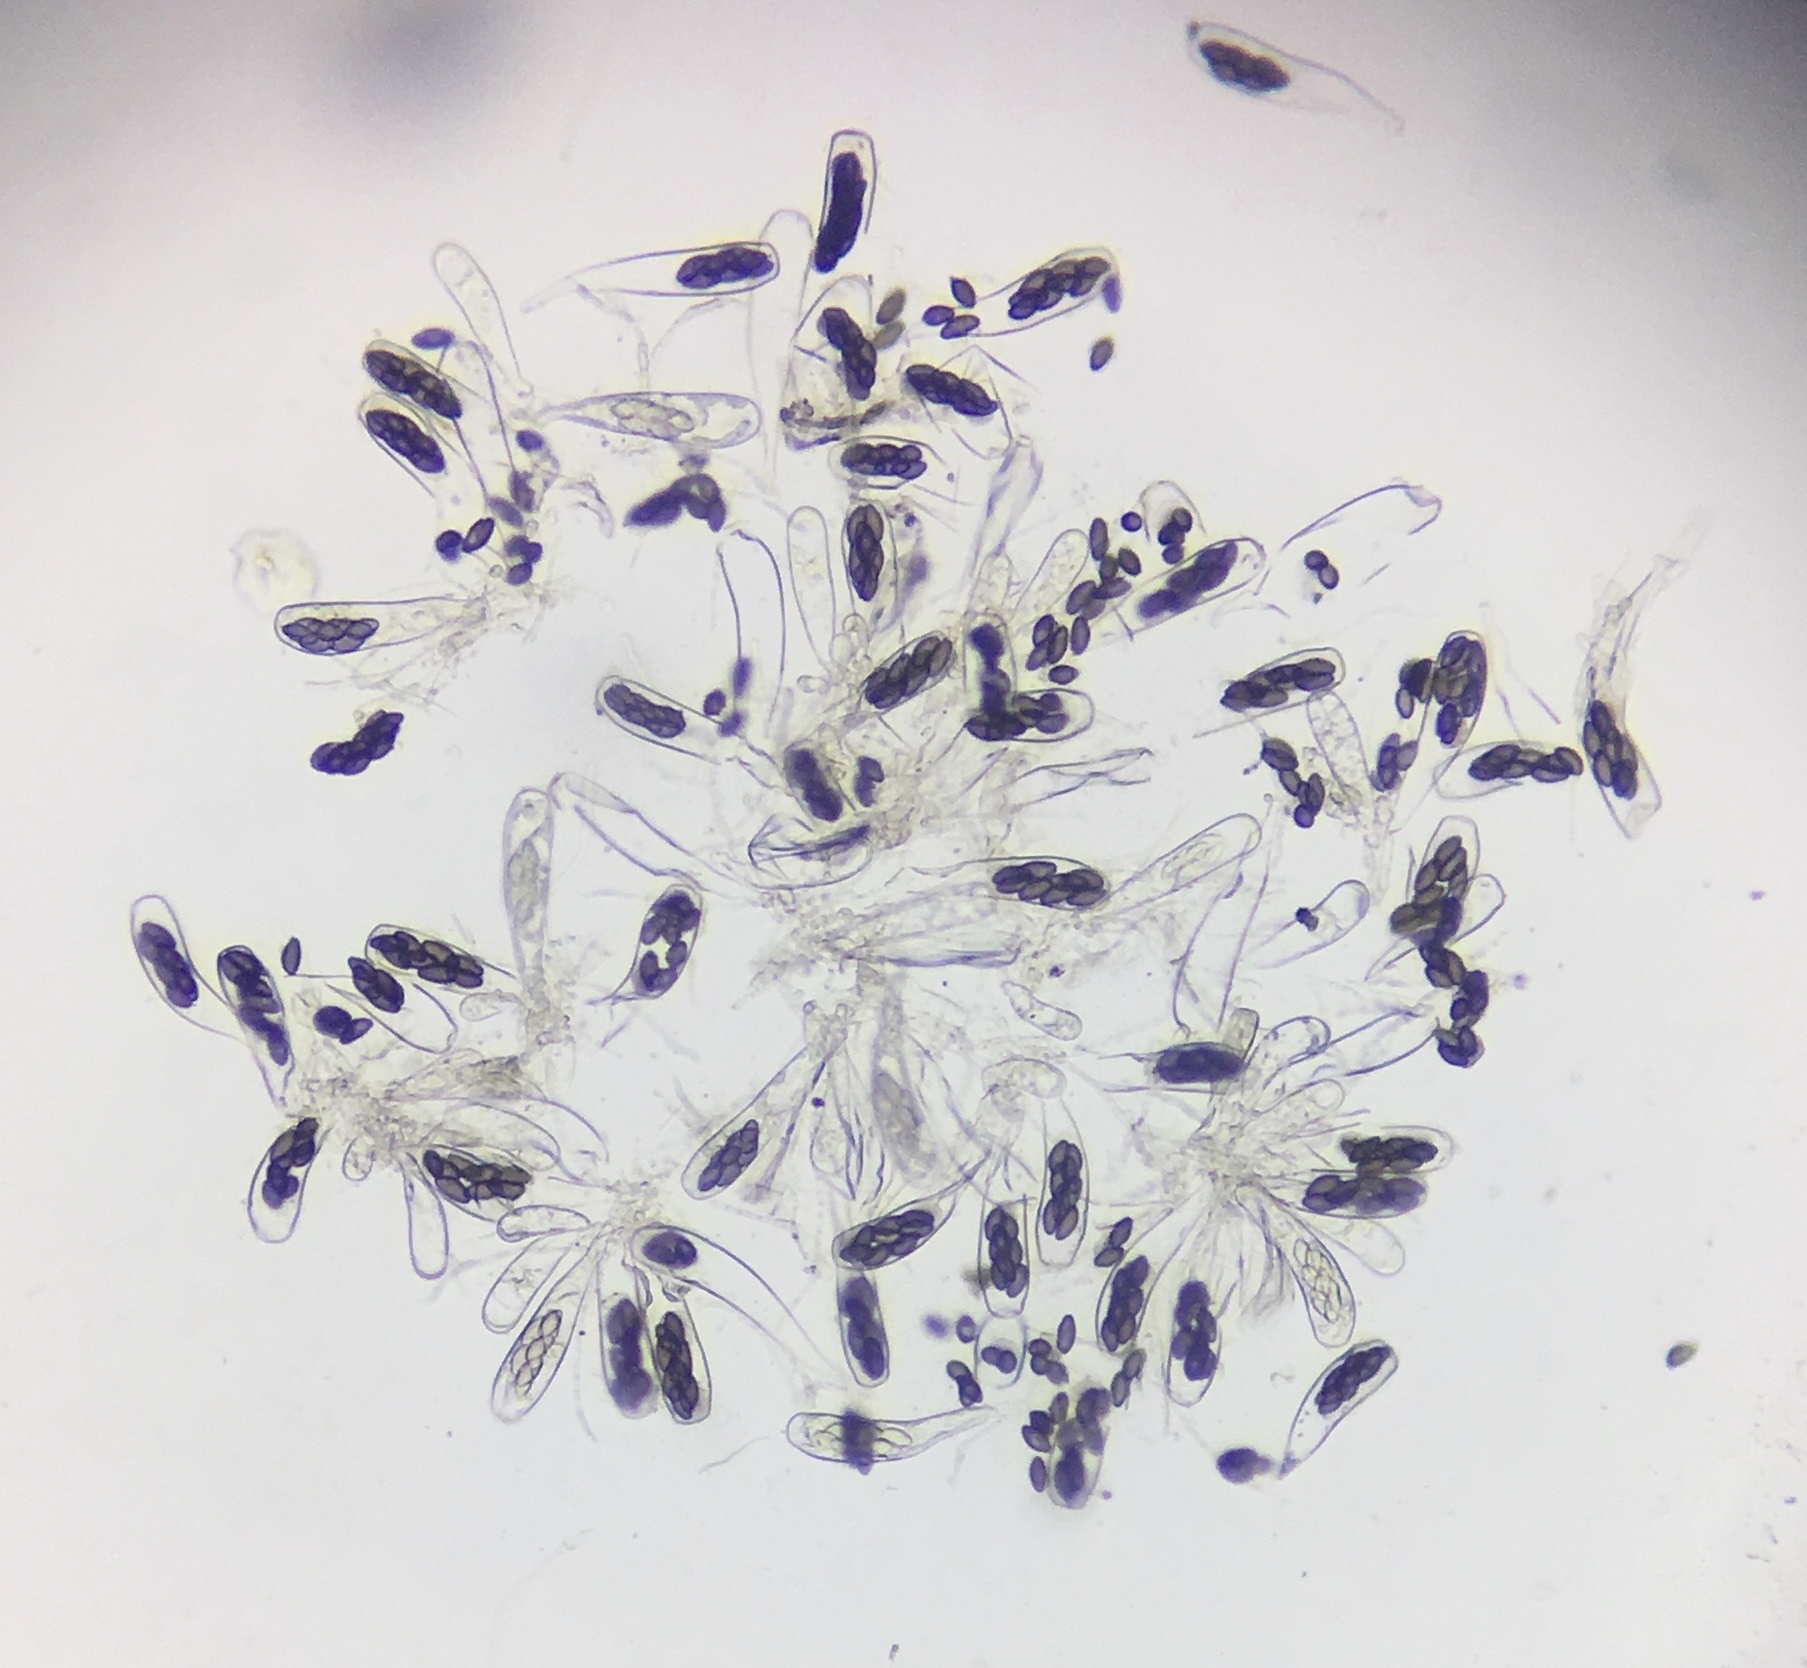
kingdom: Fungi
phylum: Ascomycota
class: Pezizomycetes
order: Pezizales
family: Ascobolaceae
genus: Saccobolus
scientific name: Saccobolus depauperatus
